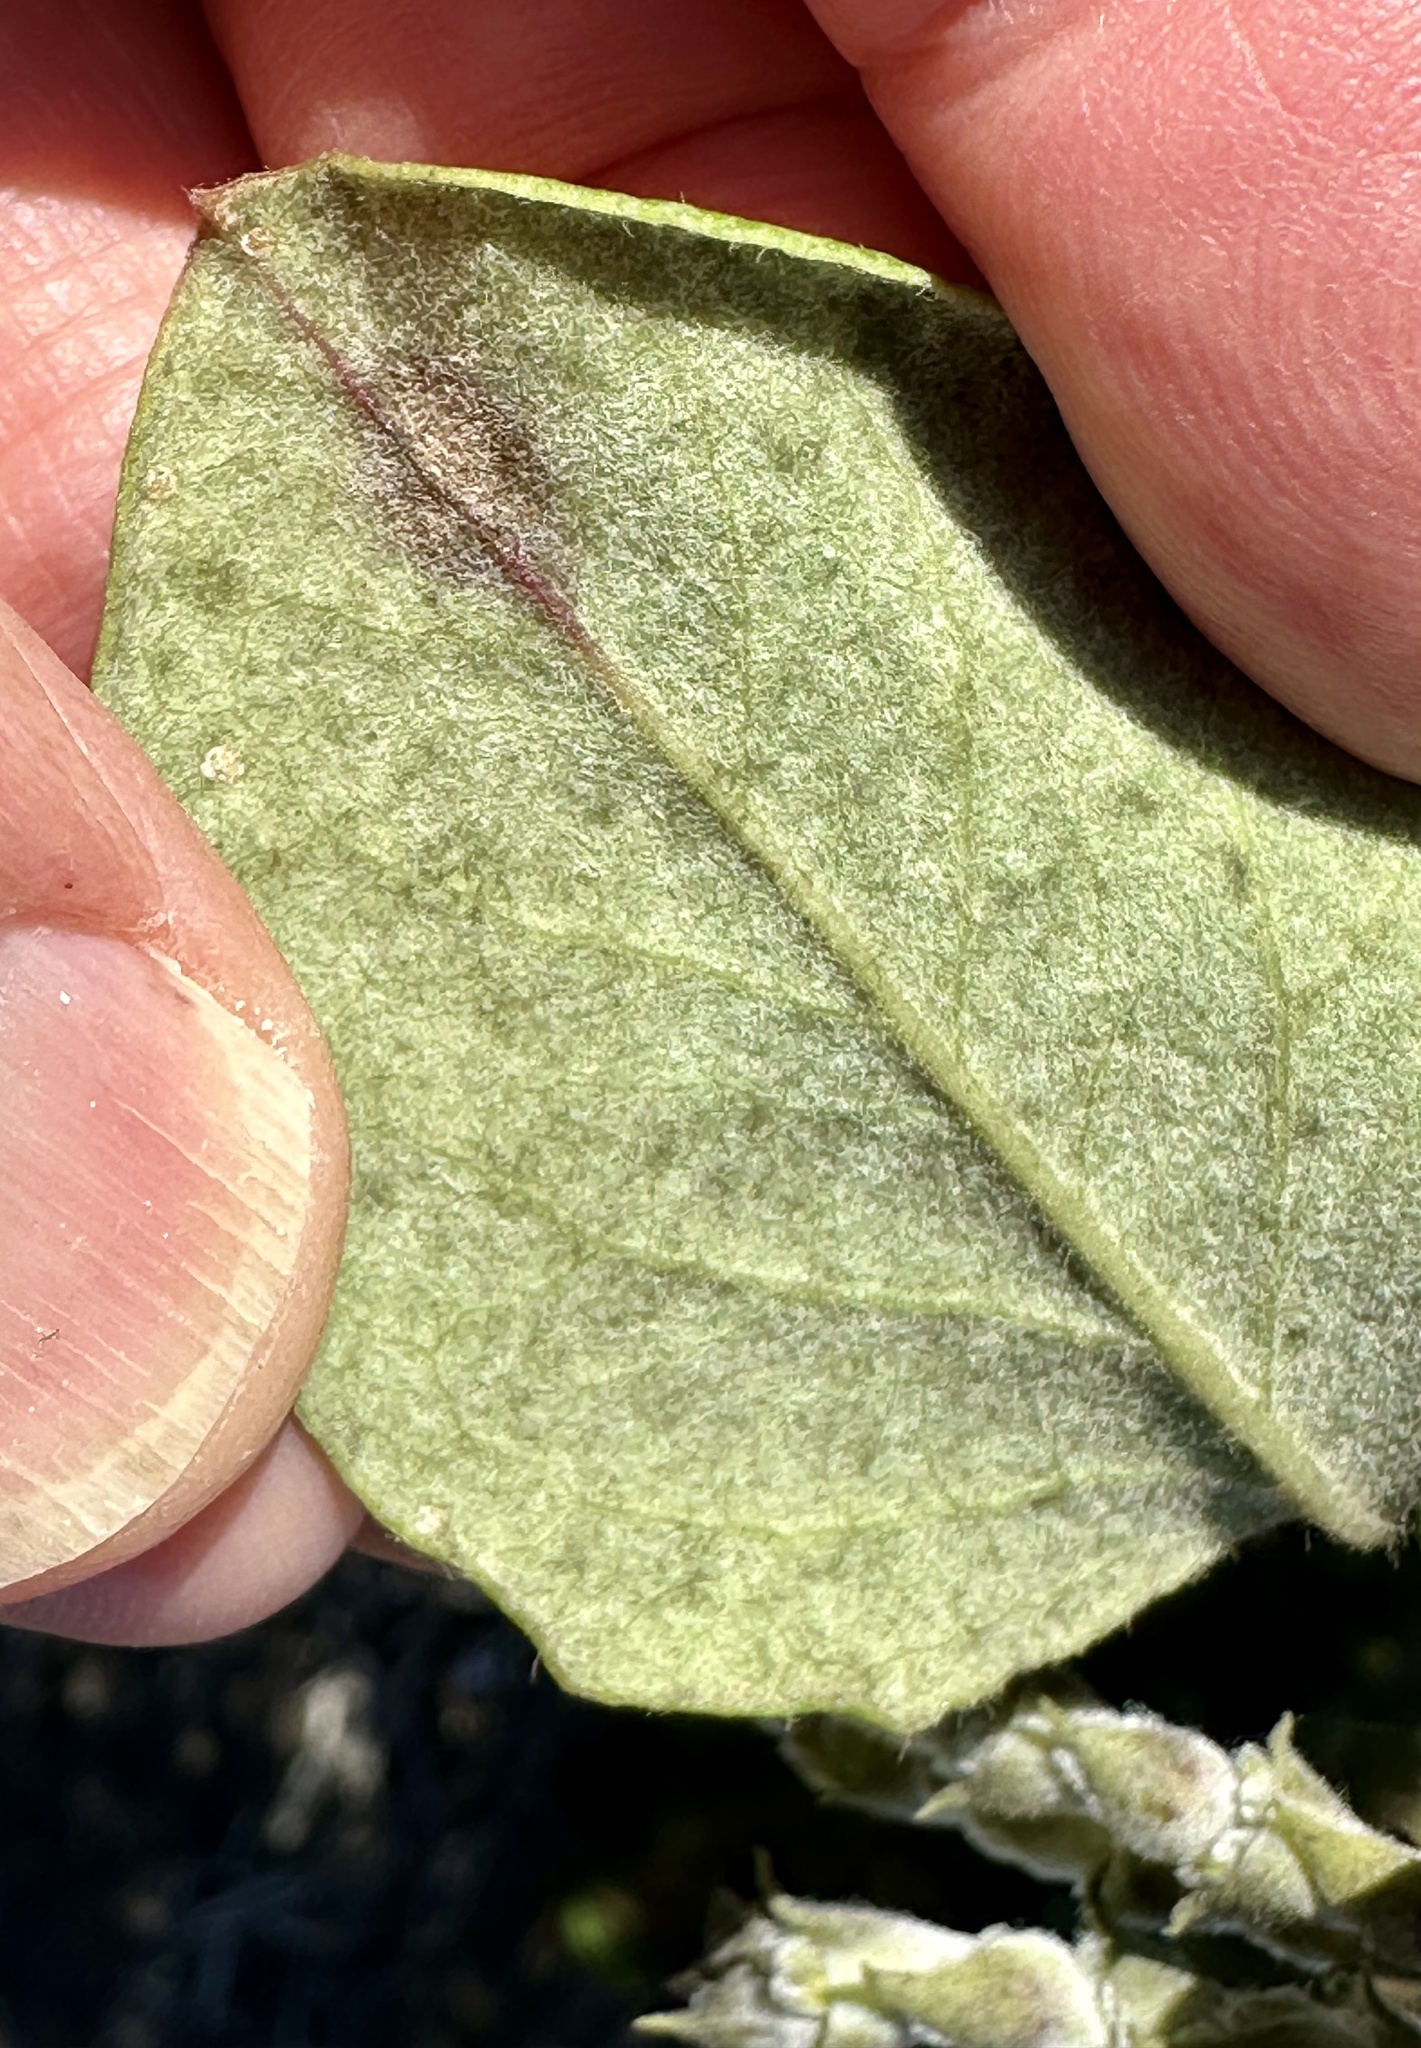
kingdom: Plantae
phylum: Tracheophyta
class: Magnoliopsida
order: Garryales
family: Garryaceae
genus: Garrya
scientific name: Garrya elliptica
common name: Silk-tassel
